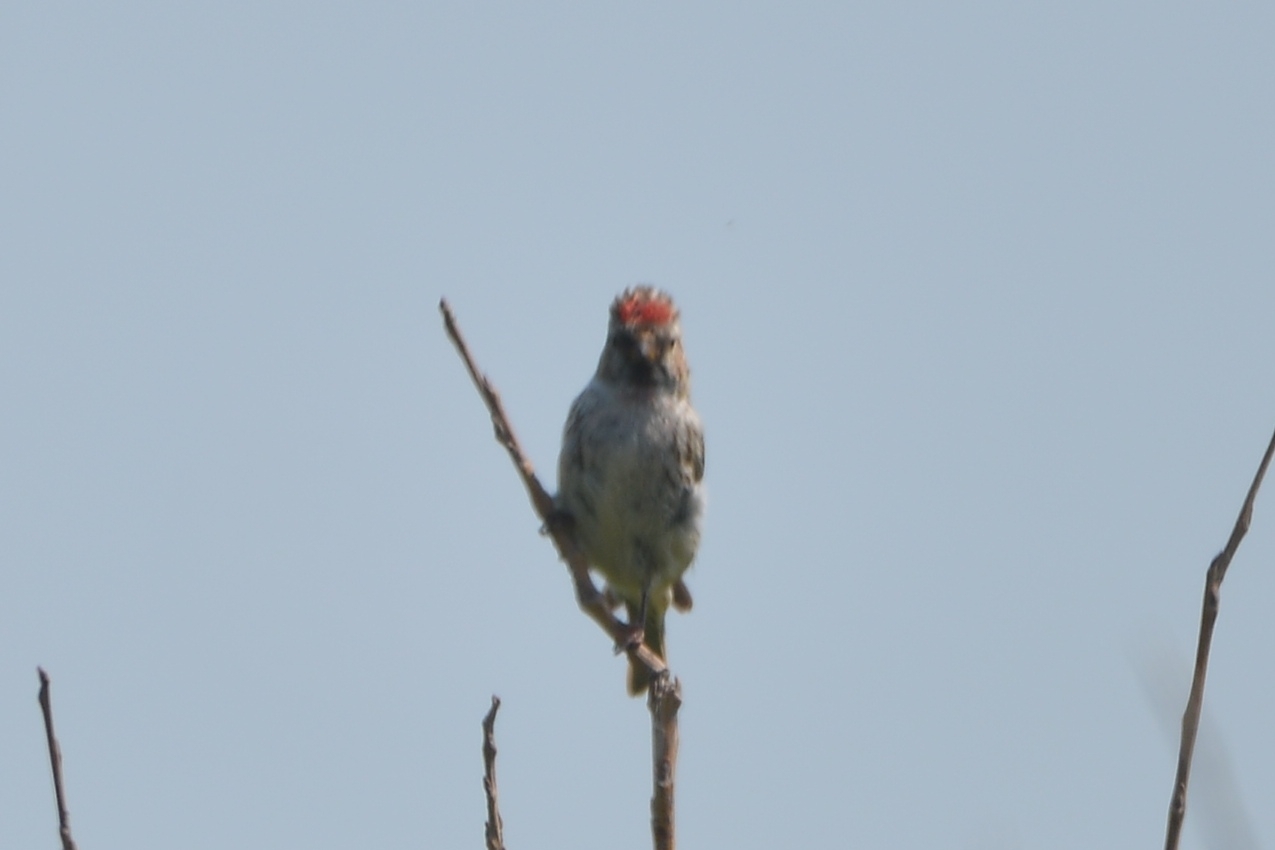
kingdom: Animalia
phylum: Chordata
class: Aves
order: Passeriformes
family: Fringillidae
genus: Acanthis
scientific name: Acanthis flammea
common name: Common redpoll
